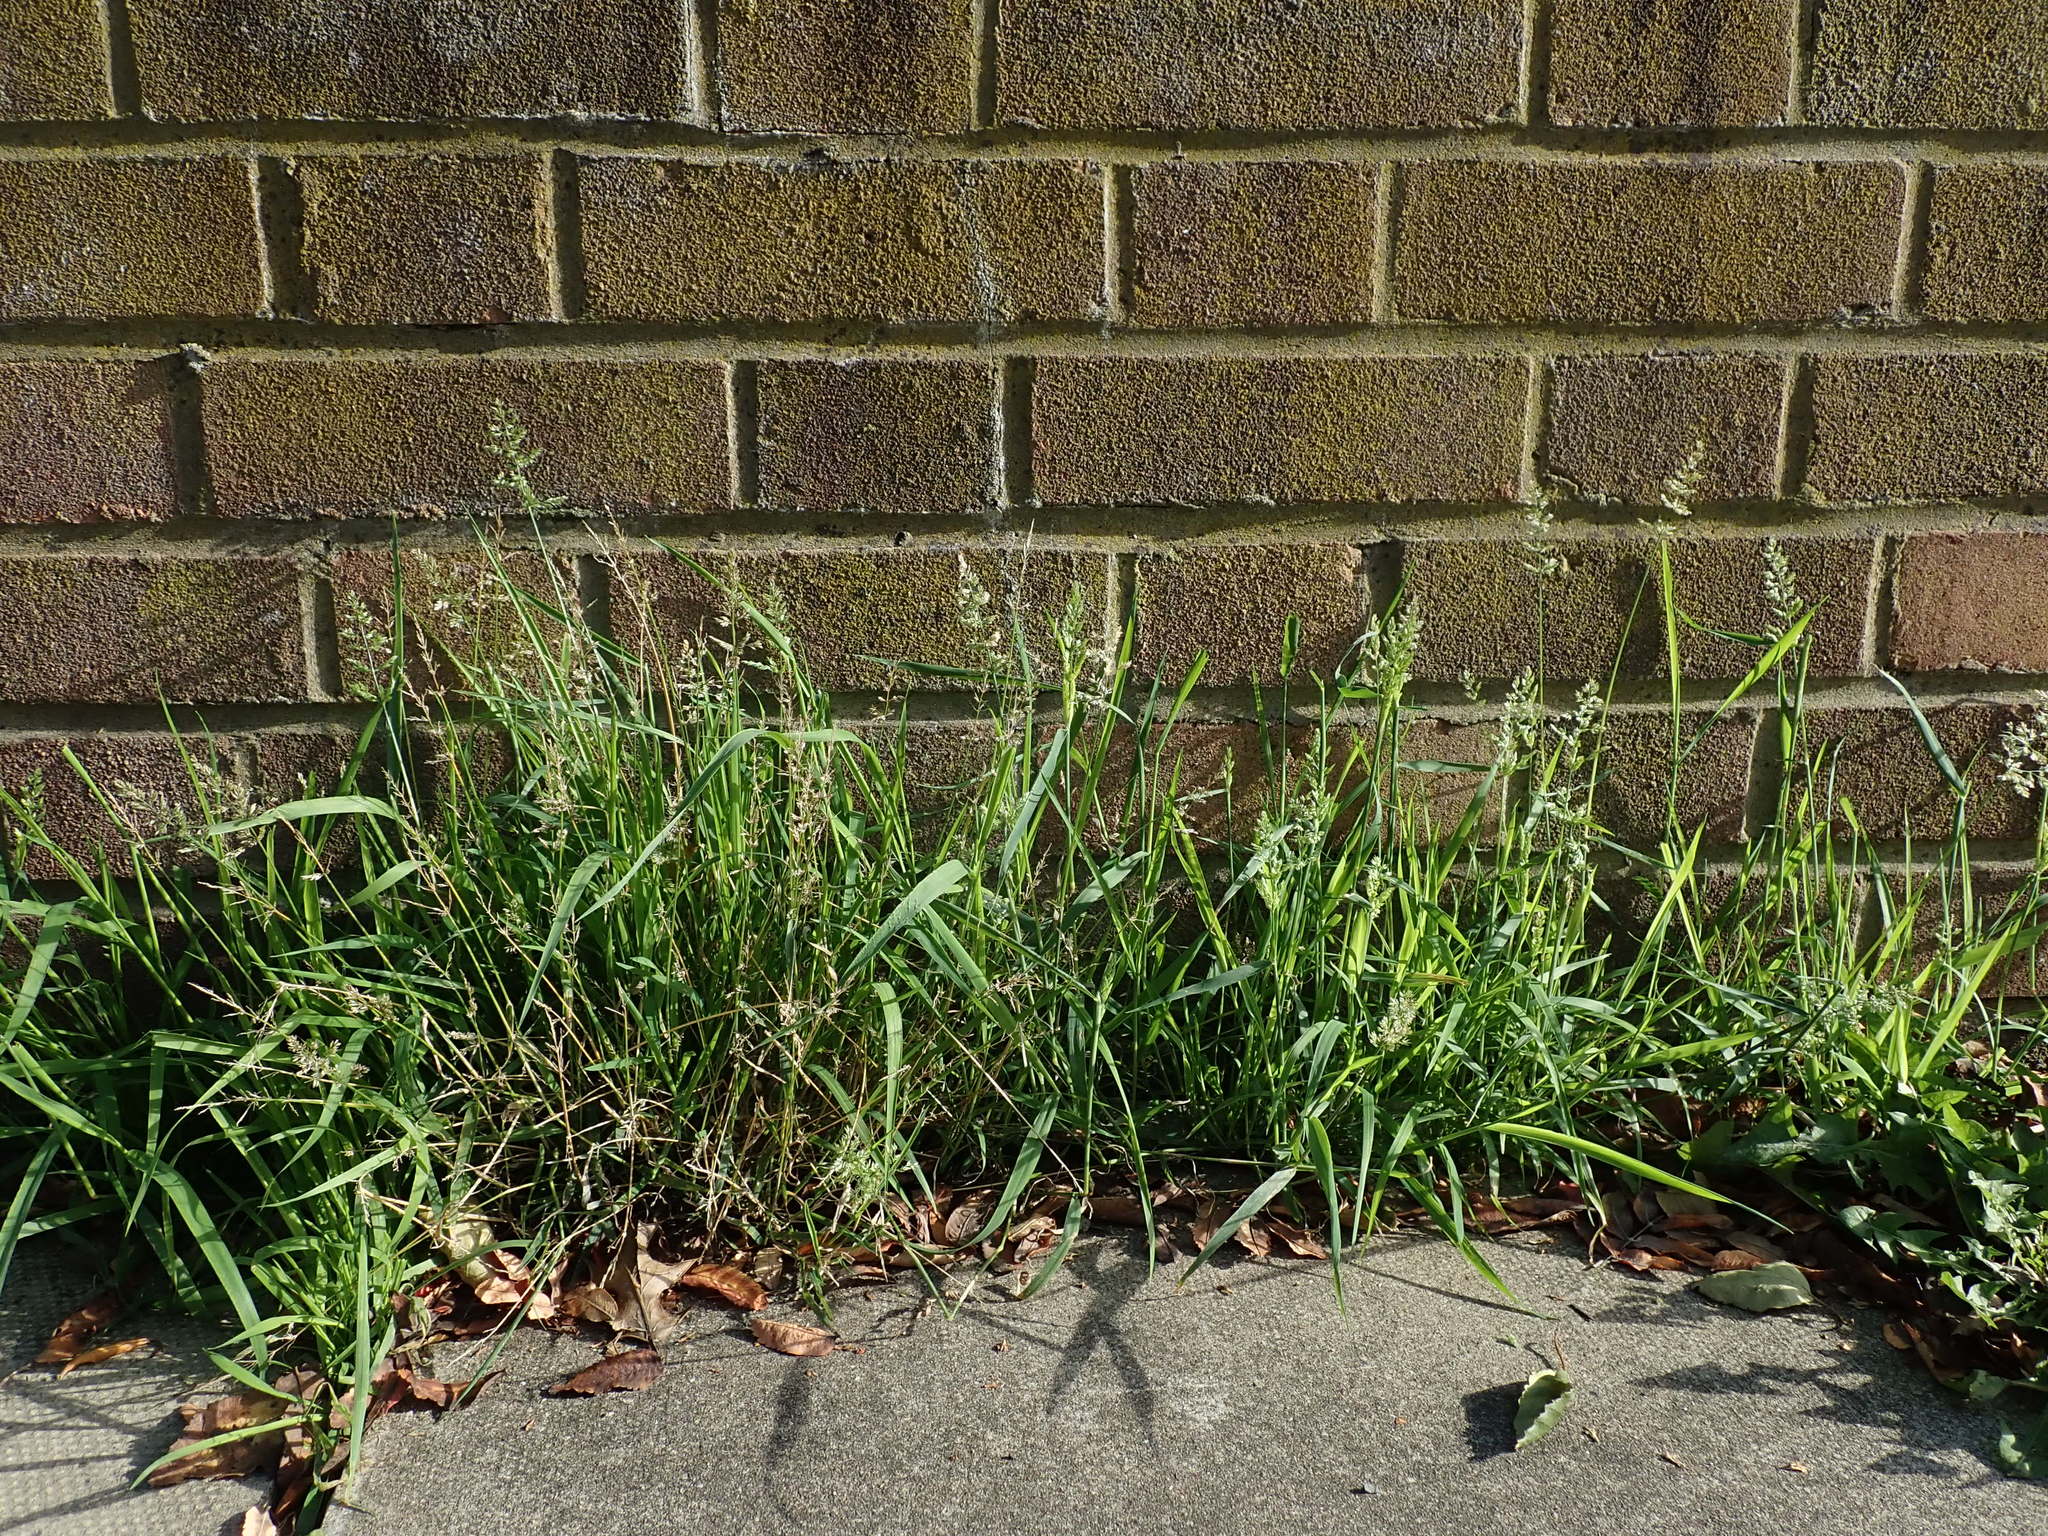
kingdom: Plantae
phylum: Tracheophyta
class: Liliopsida
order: Poales
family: Poaceae
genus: Polypogon
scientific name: Polypogon viridis
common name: Water bent
